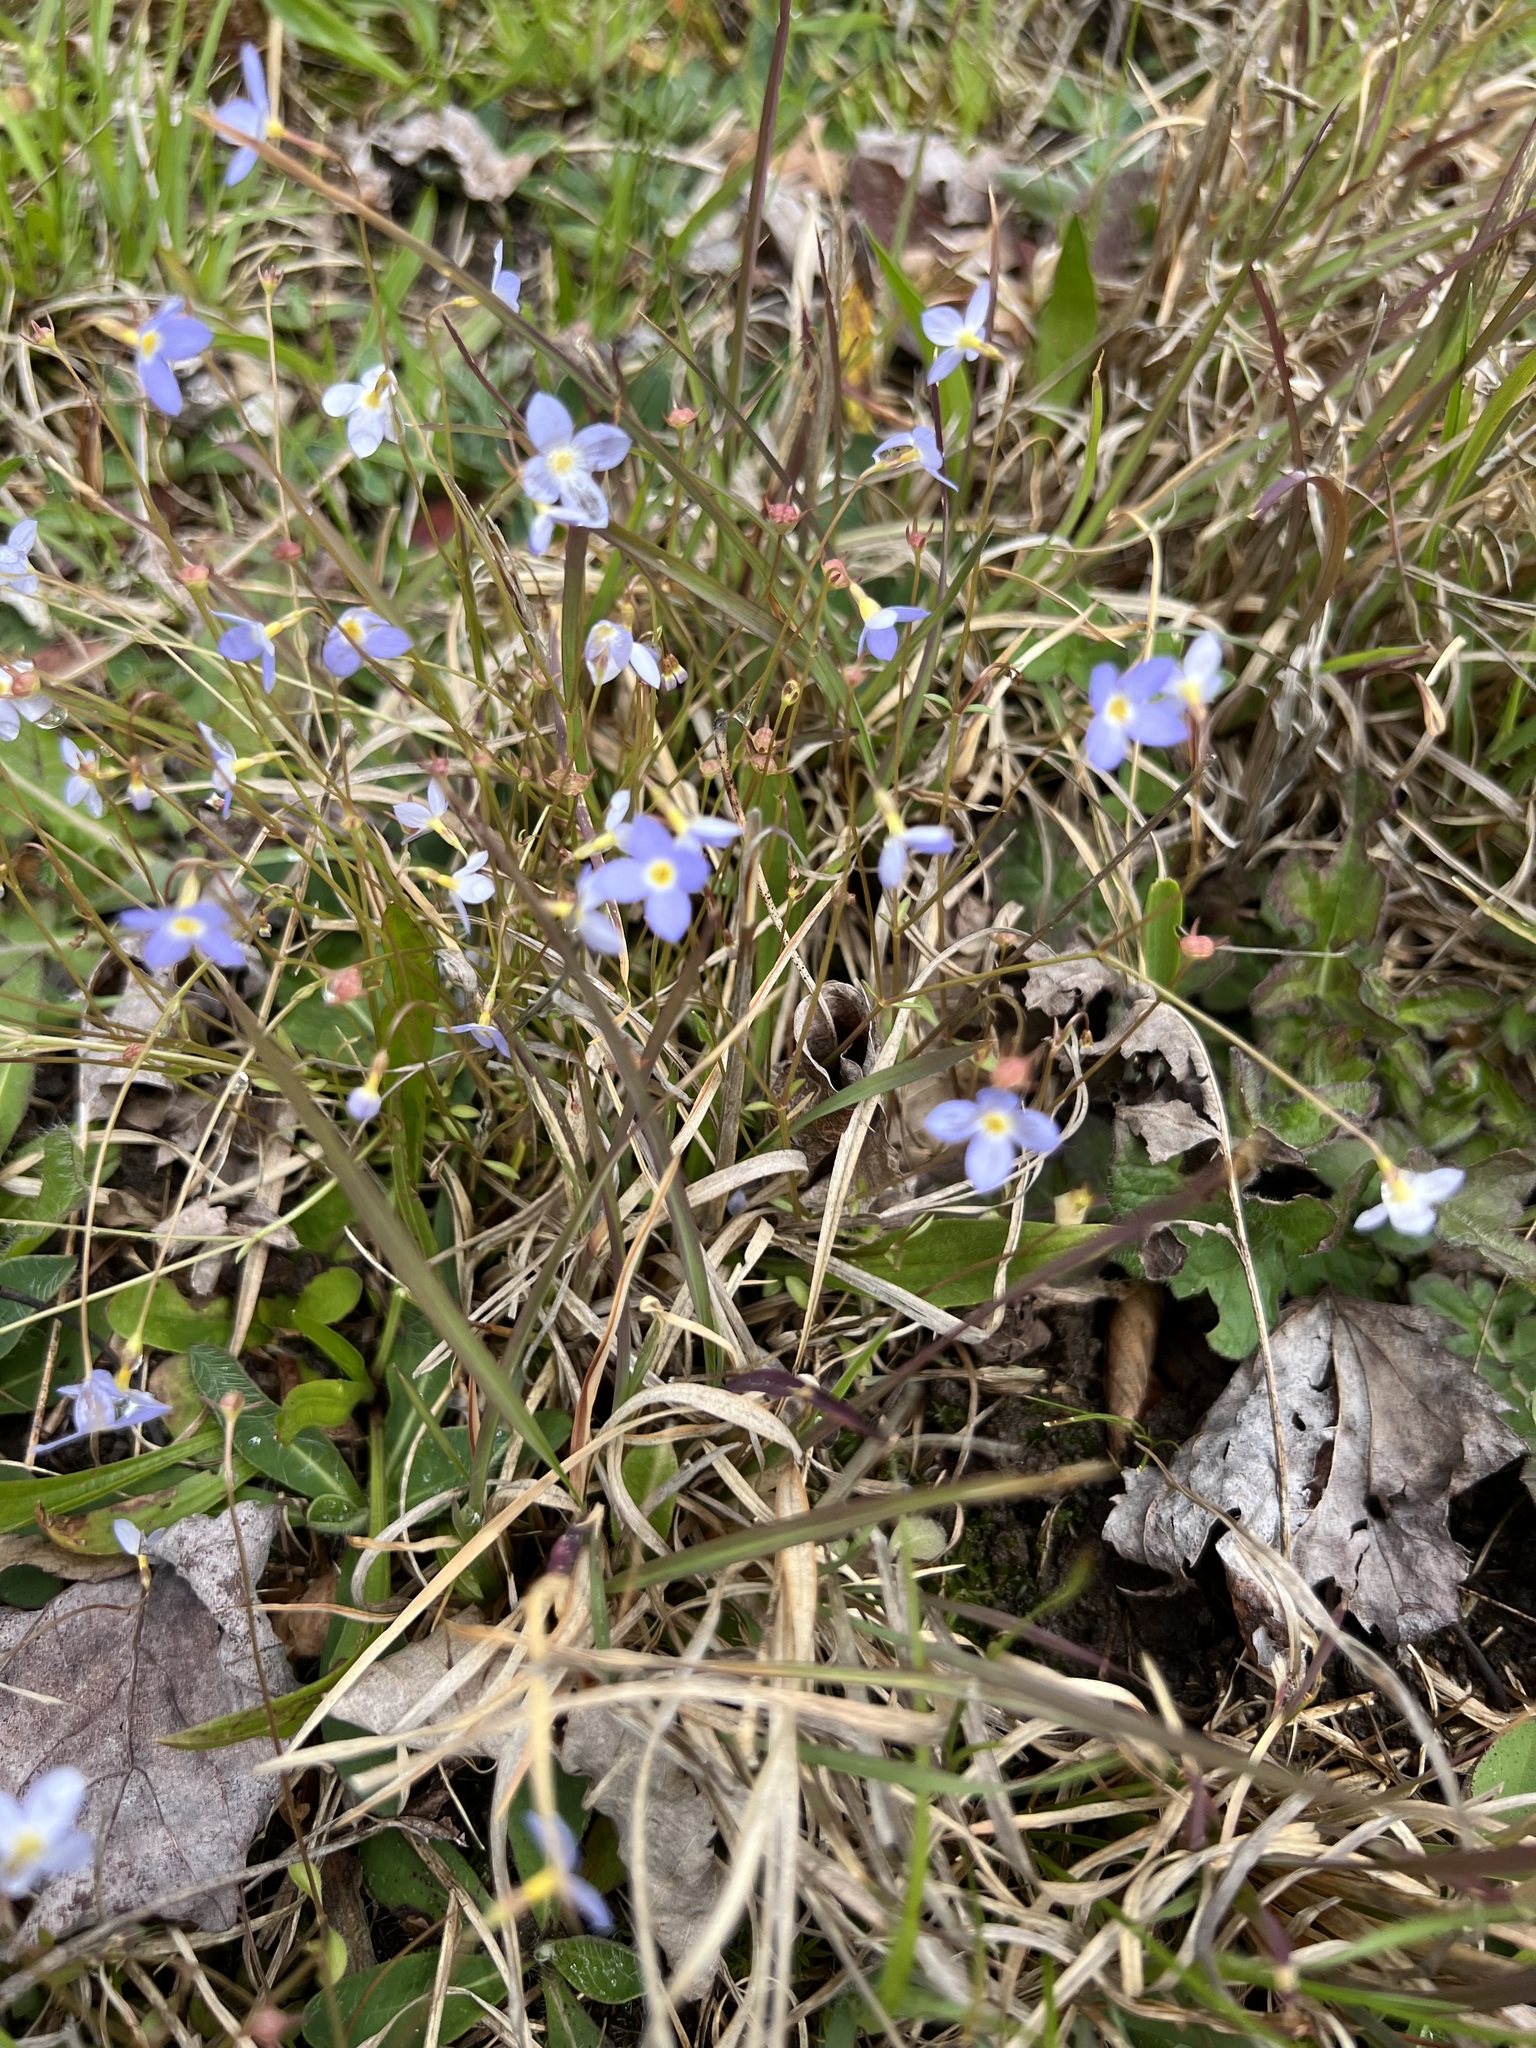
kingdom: Plantae
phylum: Tracheophyta
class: Magnoliopsida
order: Gentianales
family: Rubiaceae
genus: Houstonia
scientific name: Houstonia caerulea
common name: Bluets
